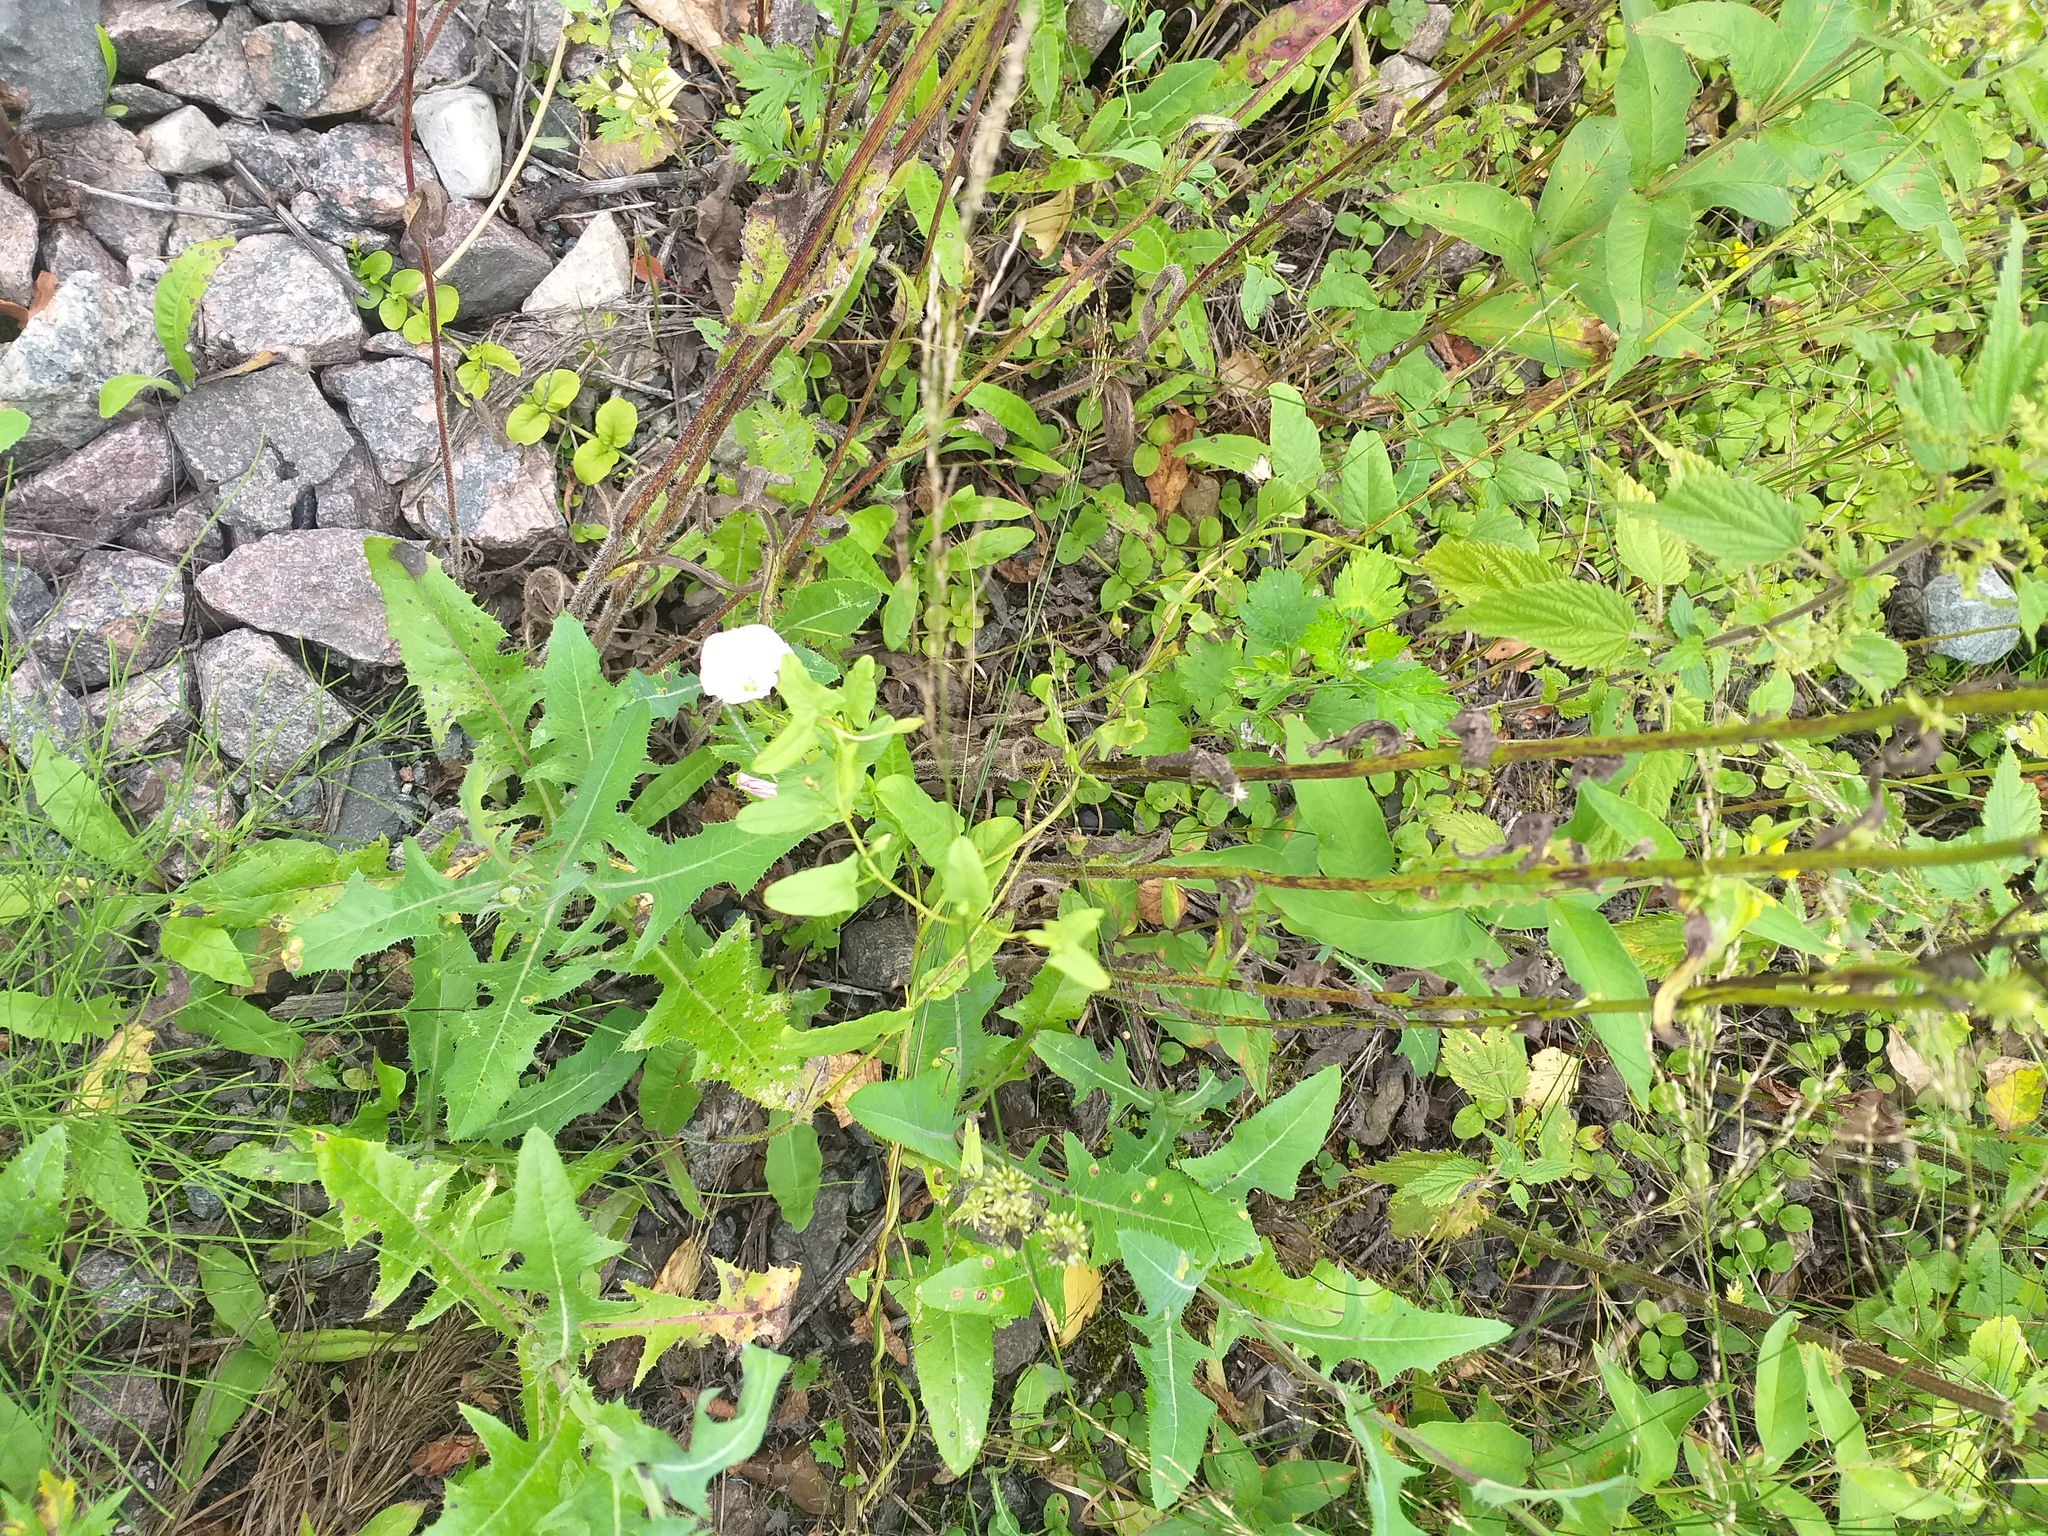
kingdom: Plantae
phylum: Tracheophyta
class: Magnoliopsida
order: Solanales
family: Convolvulaceae
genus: Convolvulus
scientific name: Convolvulus arvensis
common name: Field bindweed
